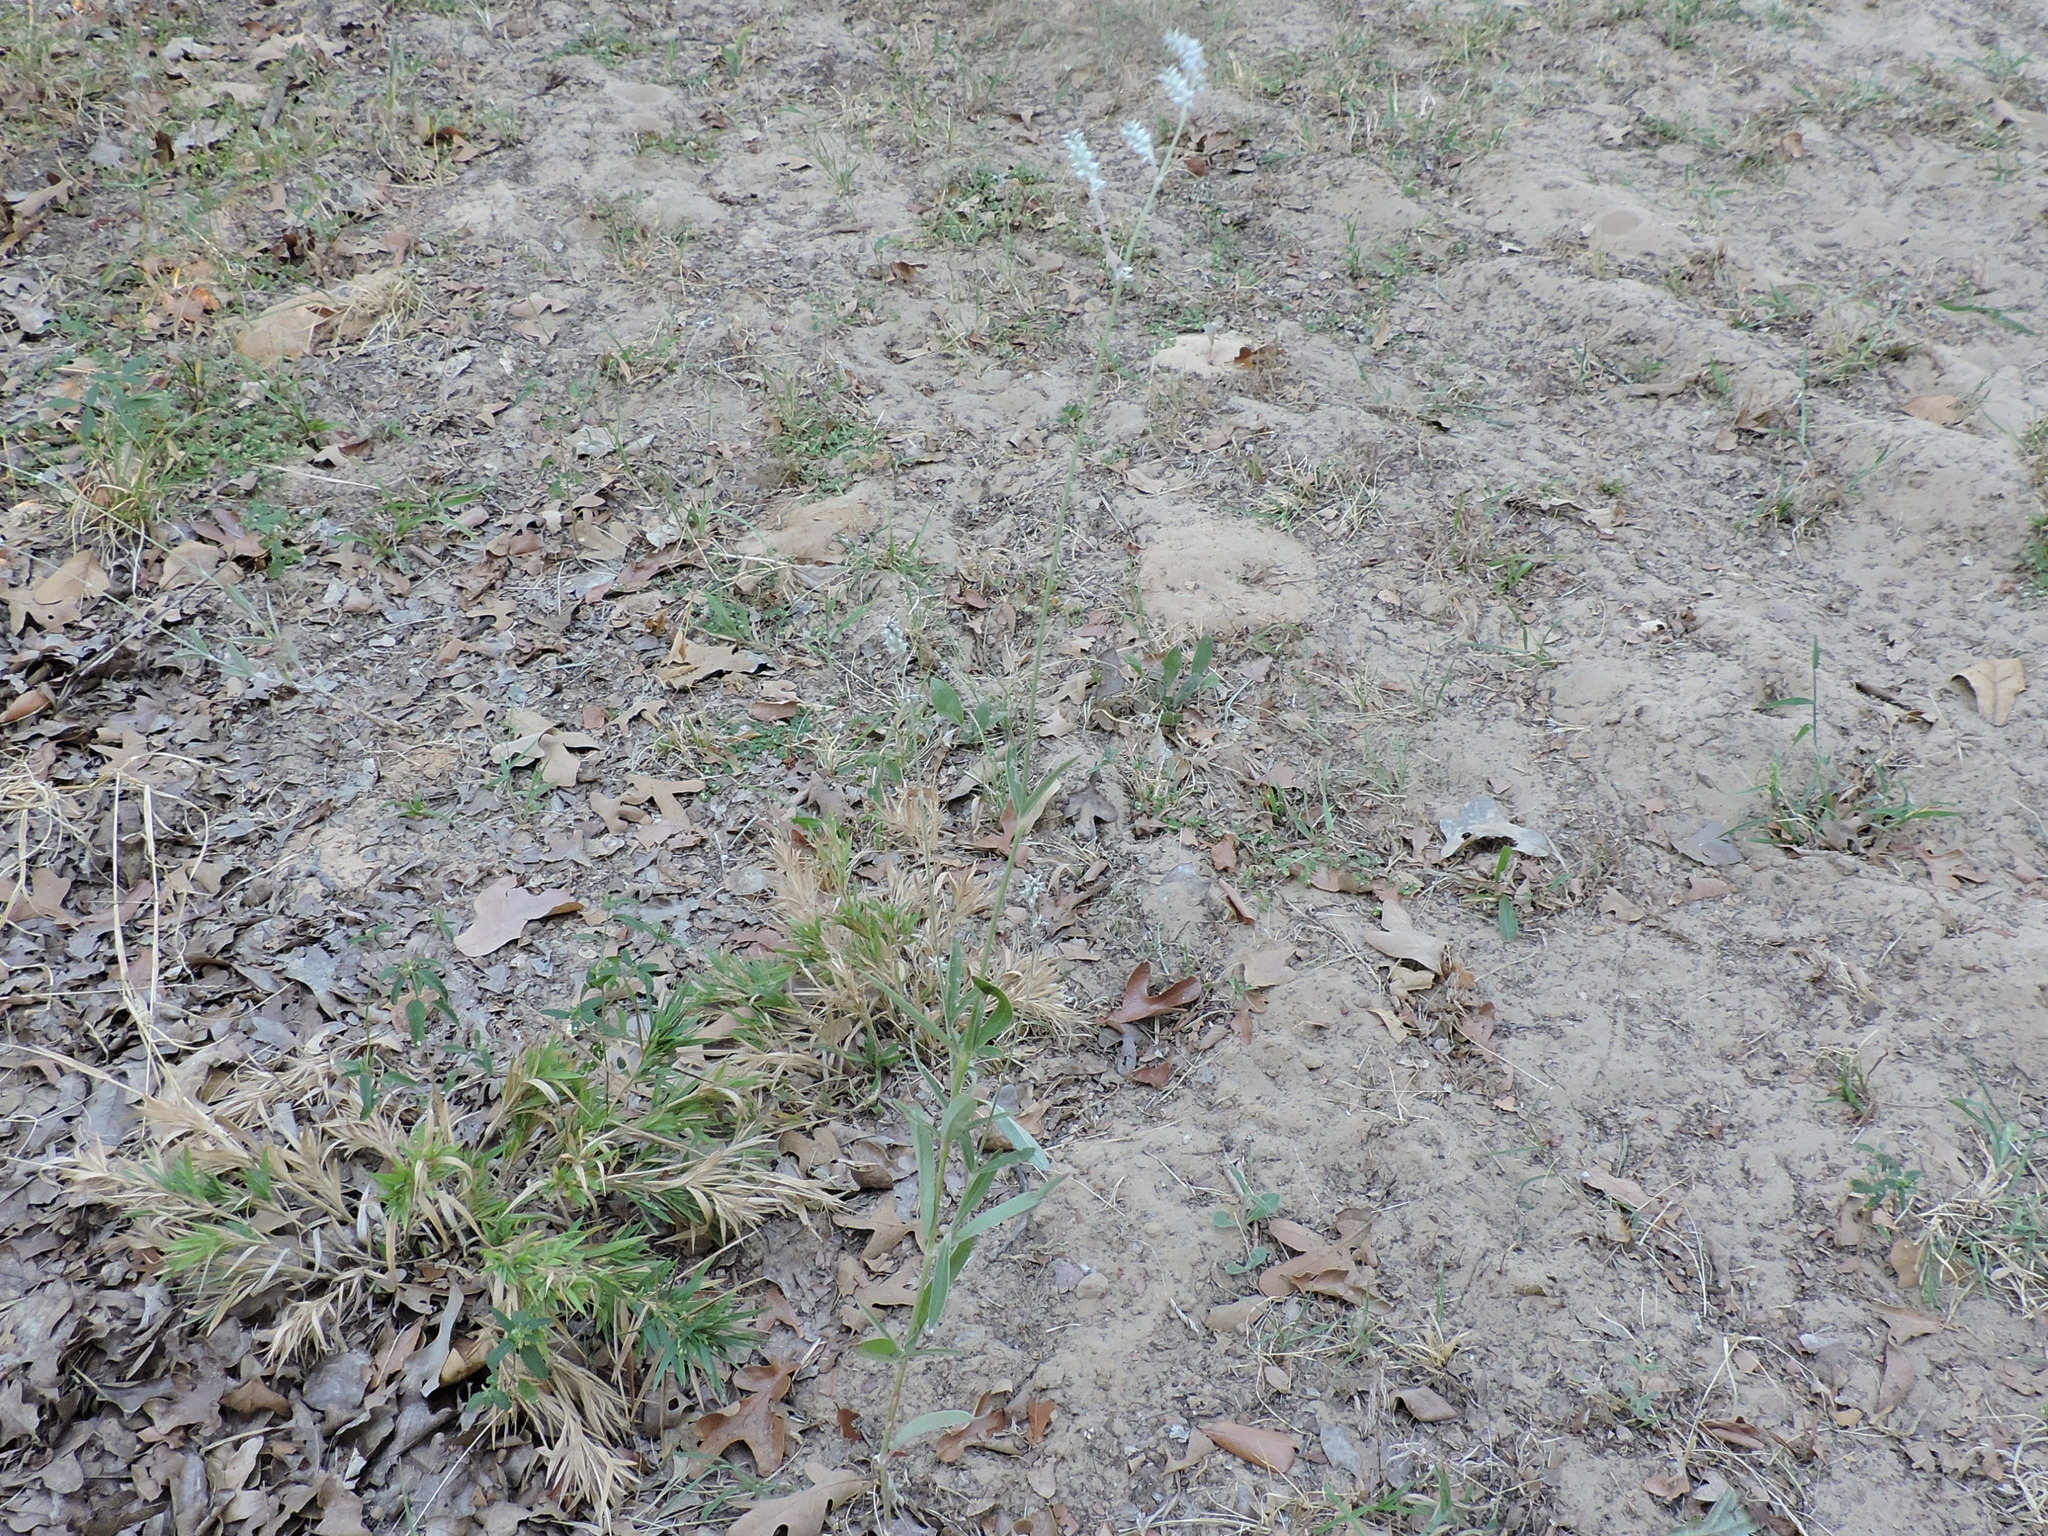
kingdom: Plantae
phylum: Tracheophyta
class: Magnoliopsida
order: Caryophyllales
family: Amaranthaceae
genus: Froelichia
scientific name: Froelichia gracilis
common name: Slender cottonweed
